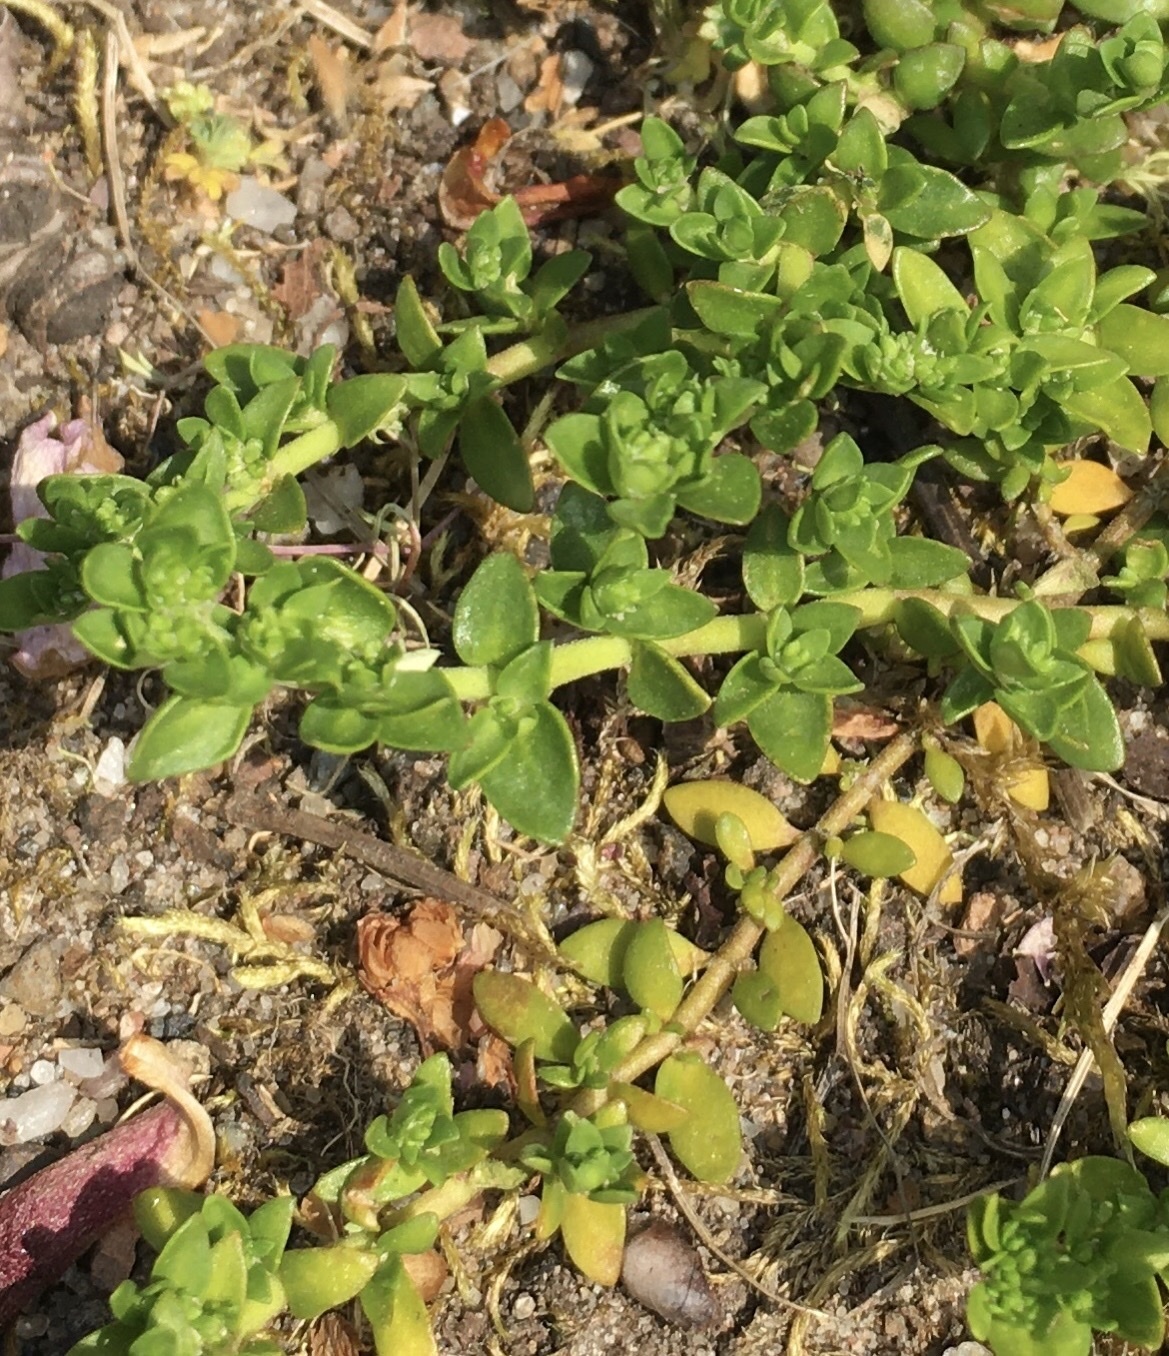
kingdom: Plantae
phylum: Tracheophyta
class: Magnoliopsida
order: Caryophyllales
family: Caryophyllaceae
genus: Honckenya
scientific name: Honckenya peploides
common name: Sea sandwort
